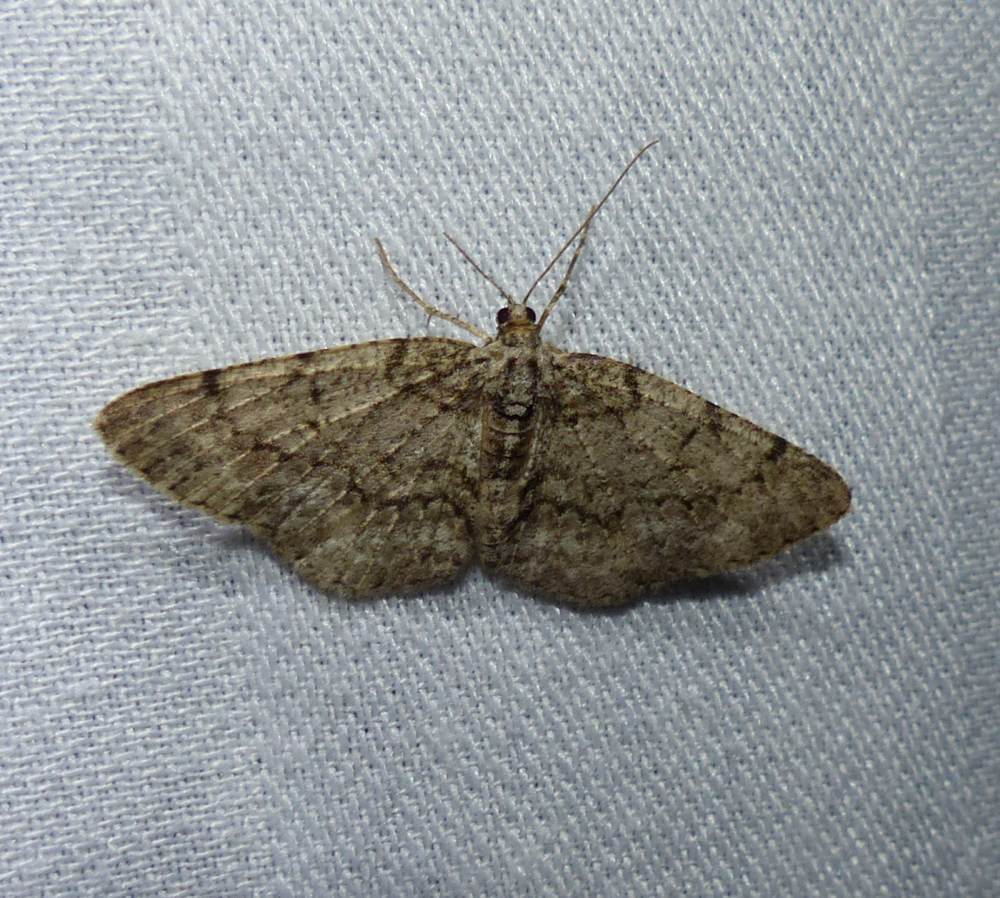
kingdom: Animalia
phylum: Arthropoda
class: Insecta
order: Lepidoptera
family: Geometridae
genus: Protoboarmia
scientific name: Protoboarmia porcelaria
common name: Porcelain gray
